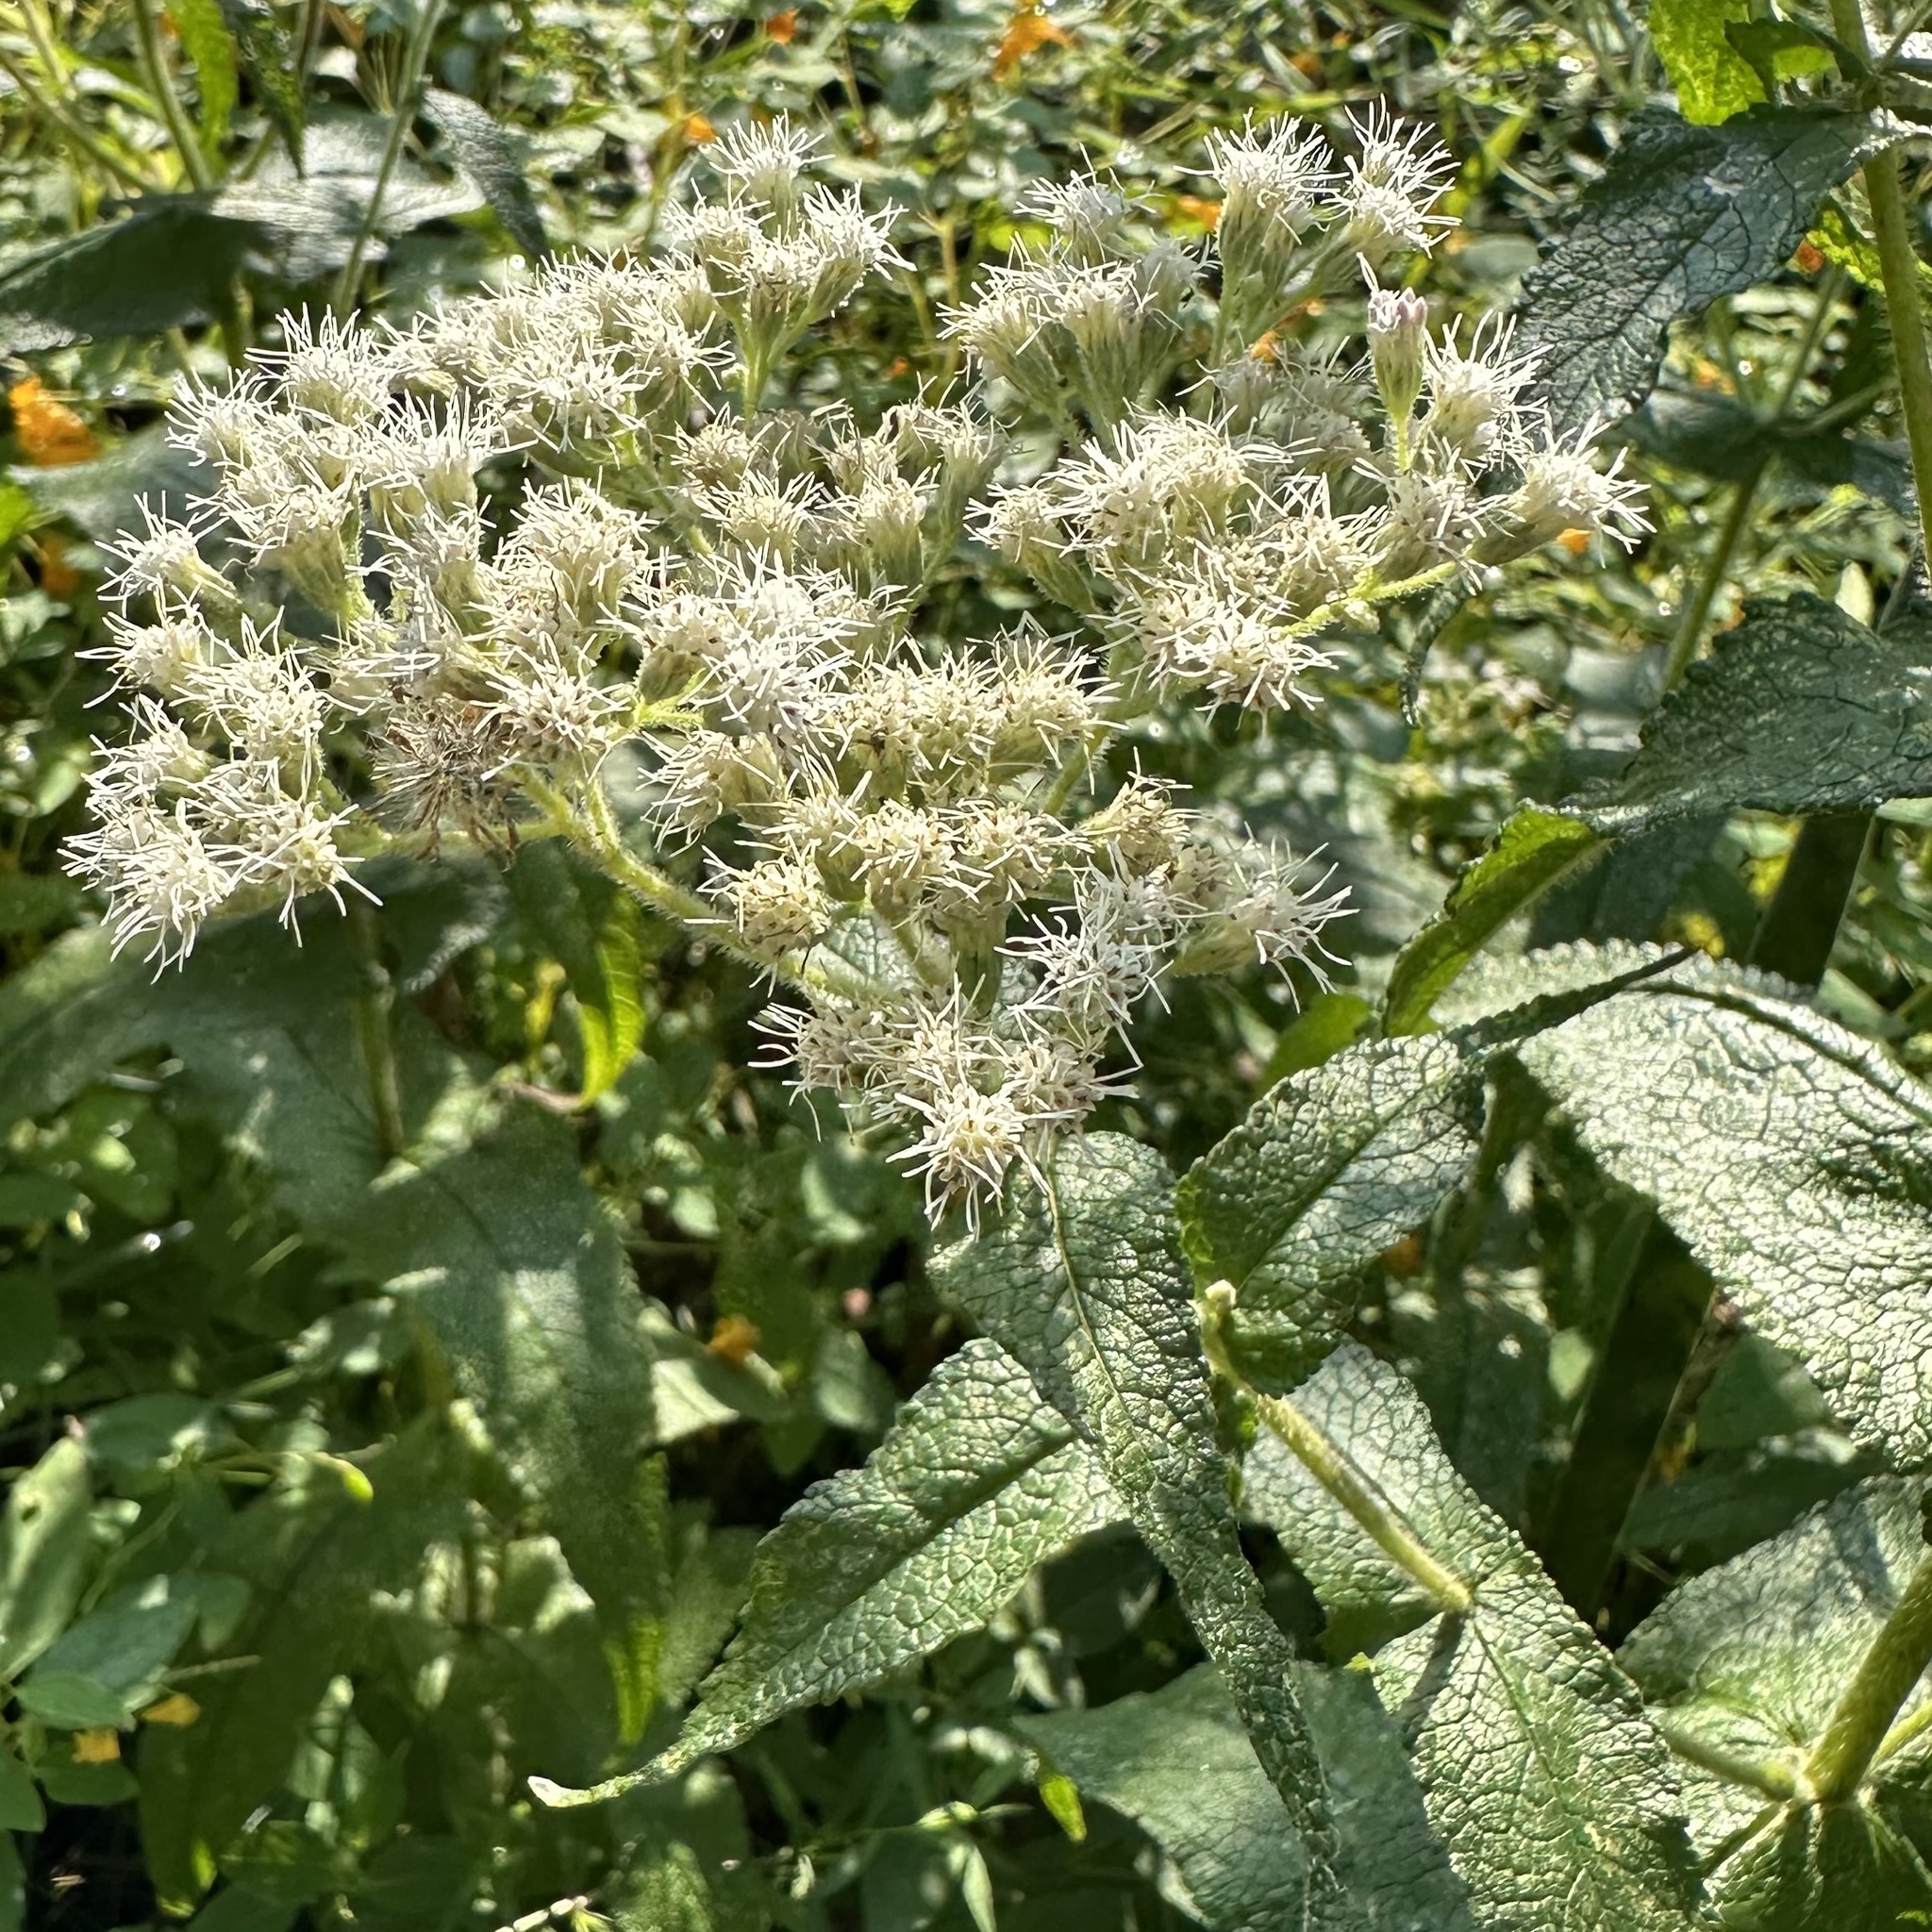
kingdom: Plantae
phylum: Tracheophyta
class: Magnoliopsida
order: Asterales
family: Asteraceae
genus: Eupatorium
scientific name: Eupatorium perfoliatum
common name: Boneset
